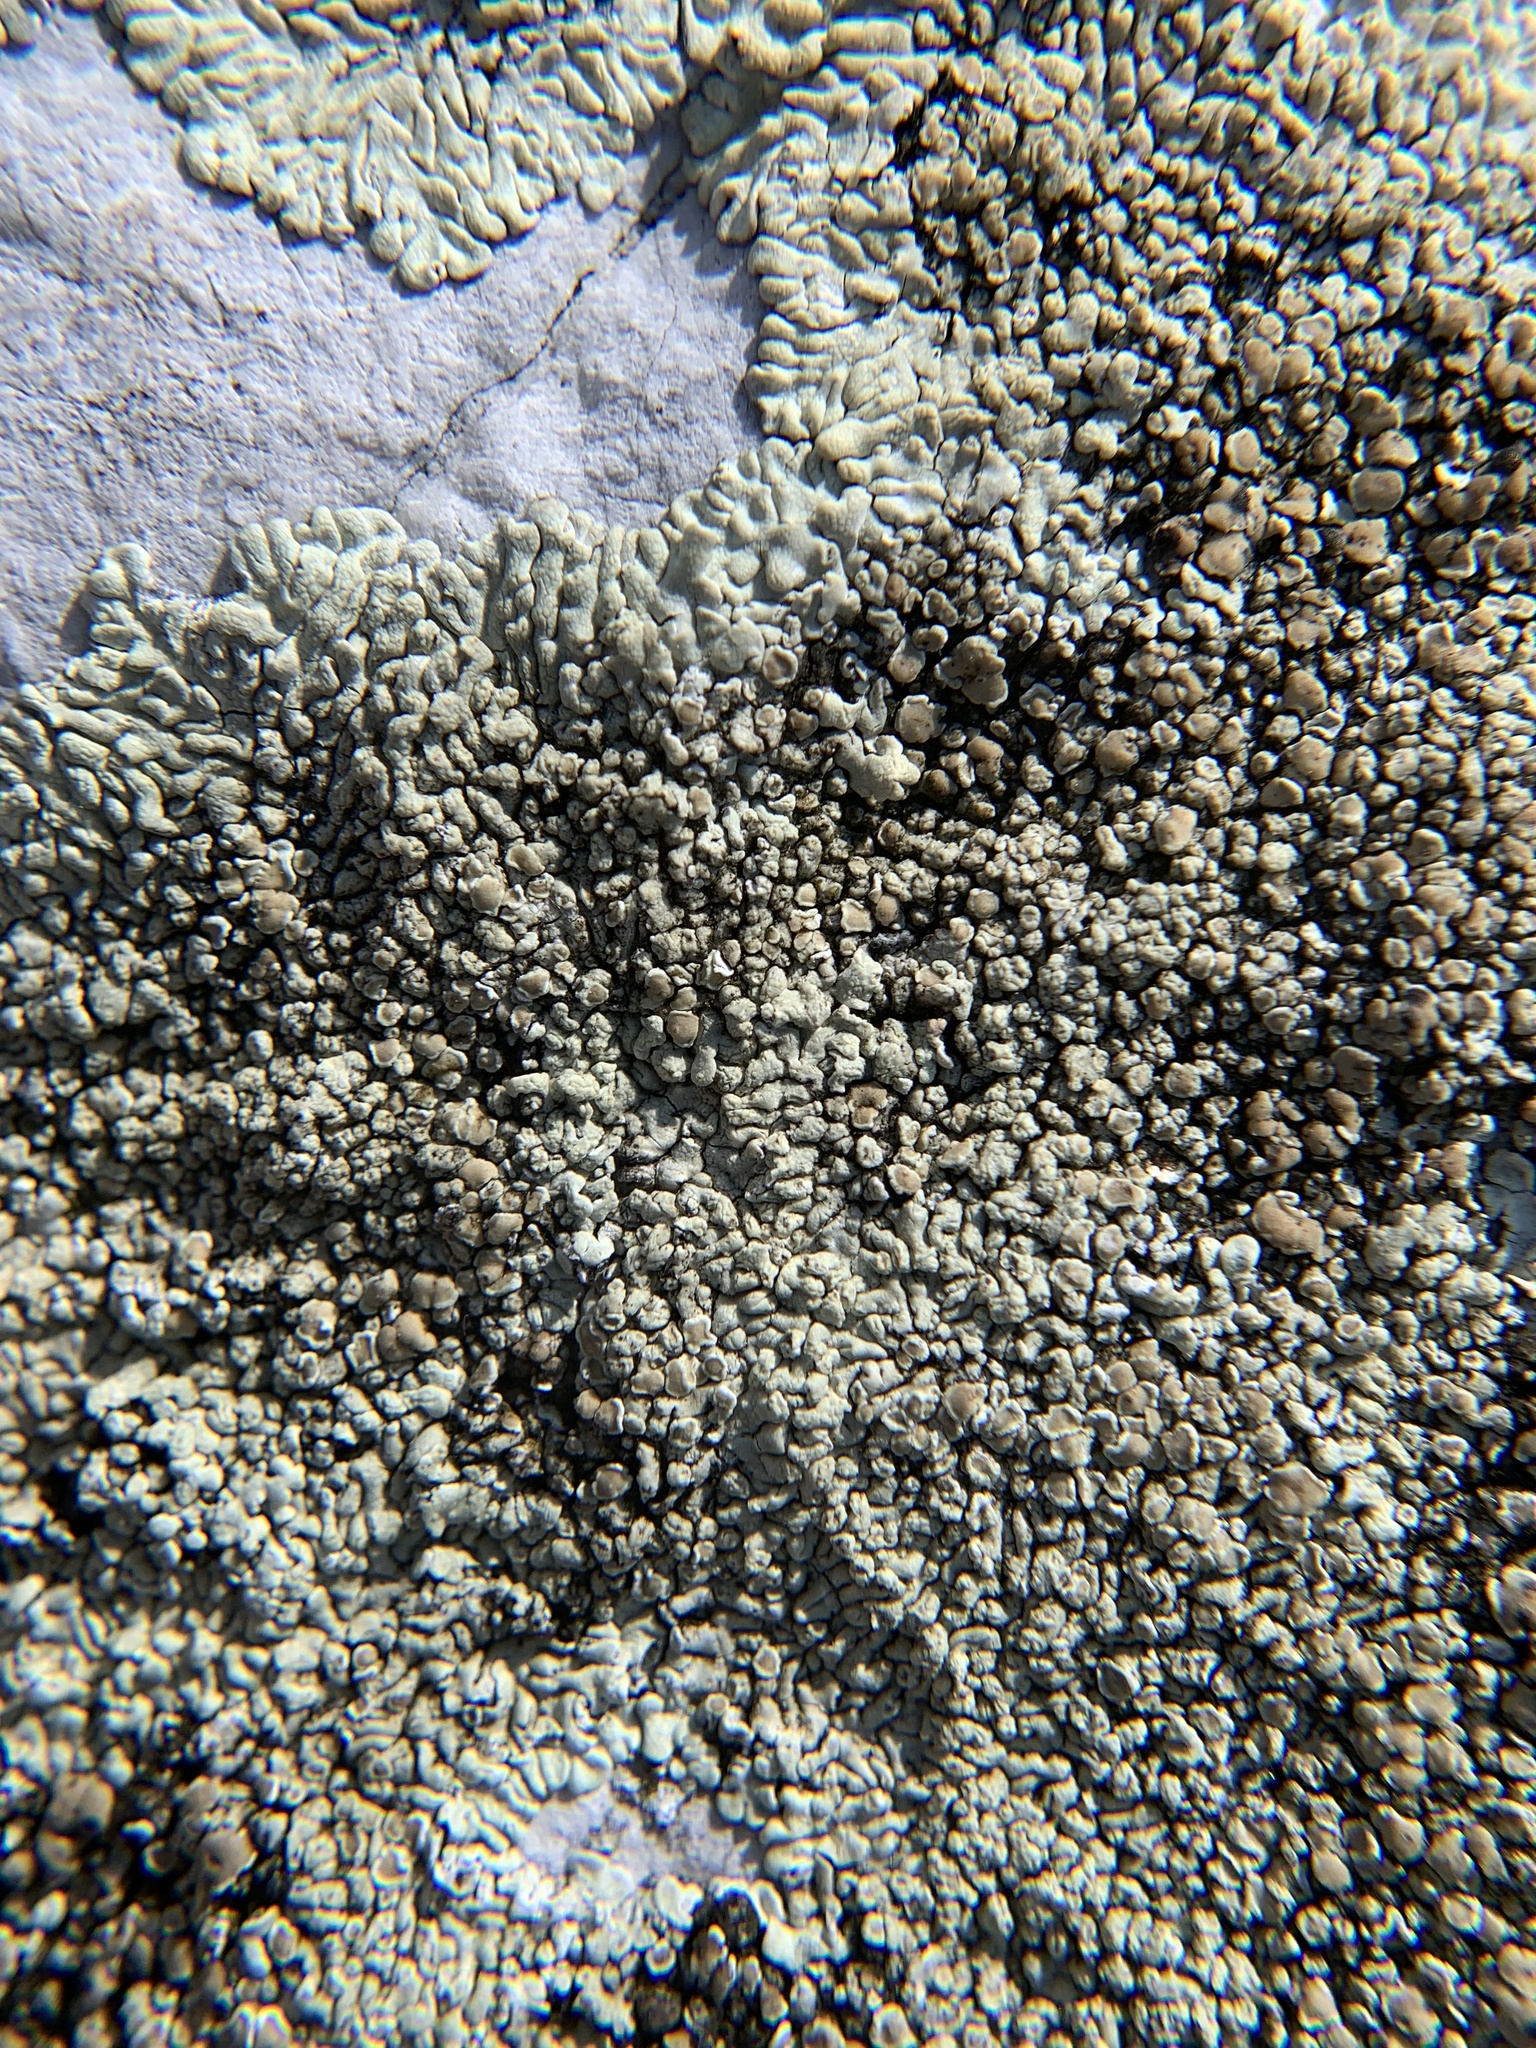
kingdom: Fungi
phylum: Ascomycota
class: Lecanoromycetes
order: Lecanorales
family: Lecanoraceae
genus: Protoparmeliopsis
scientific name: Protoparmeliopsis muralis
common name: Stonewall rim lichen
